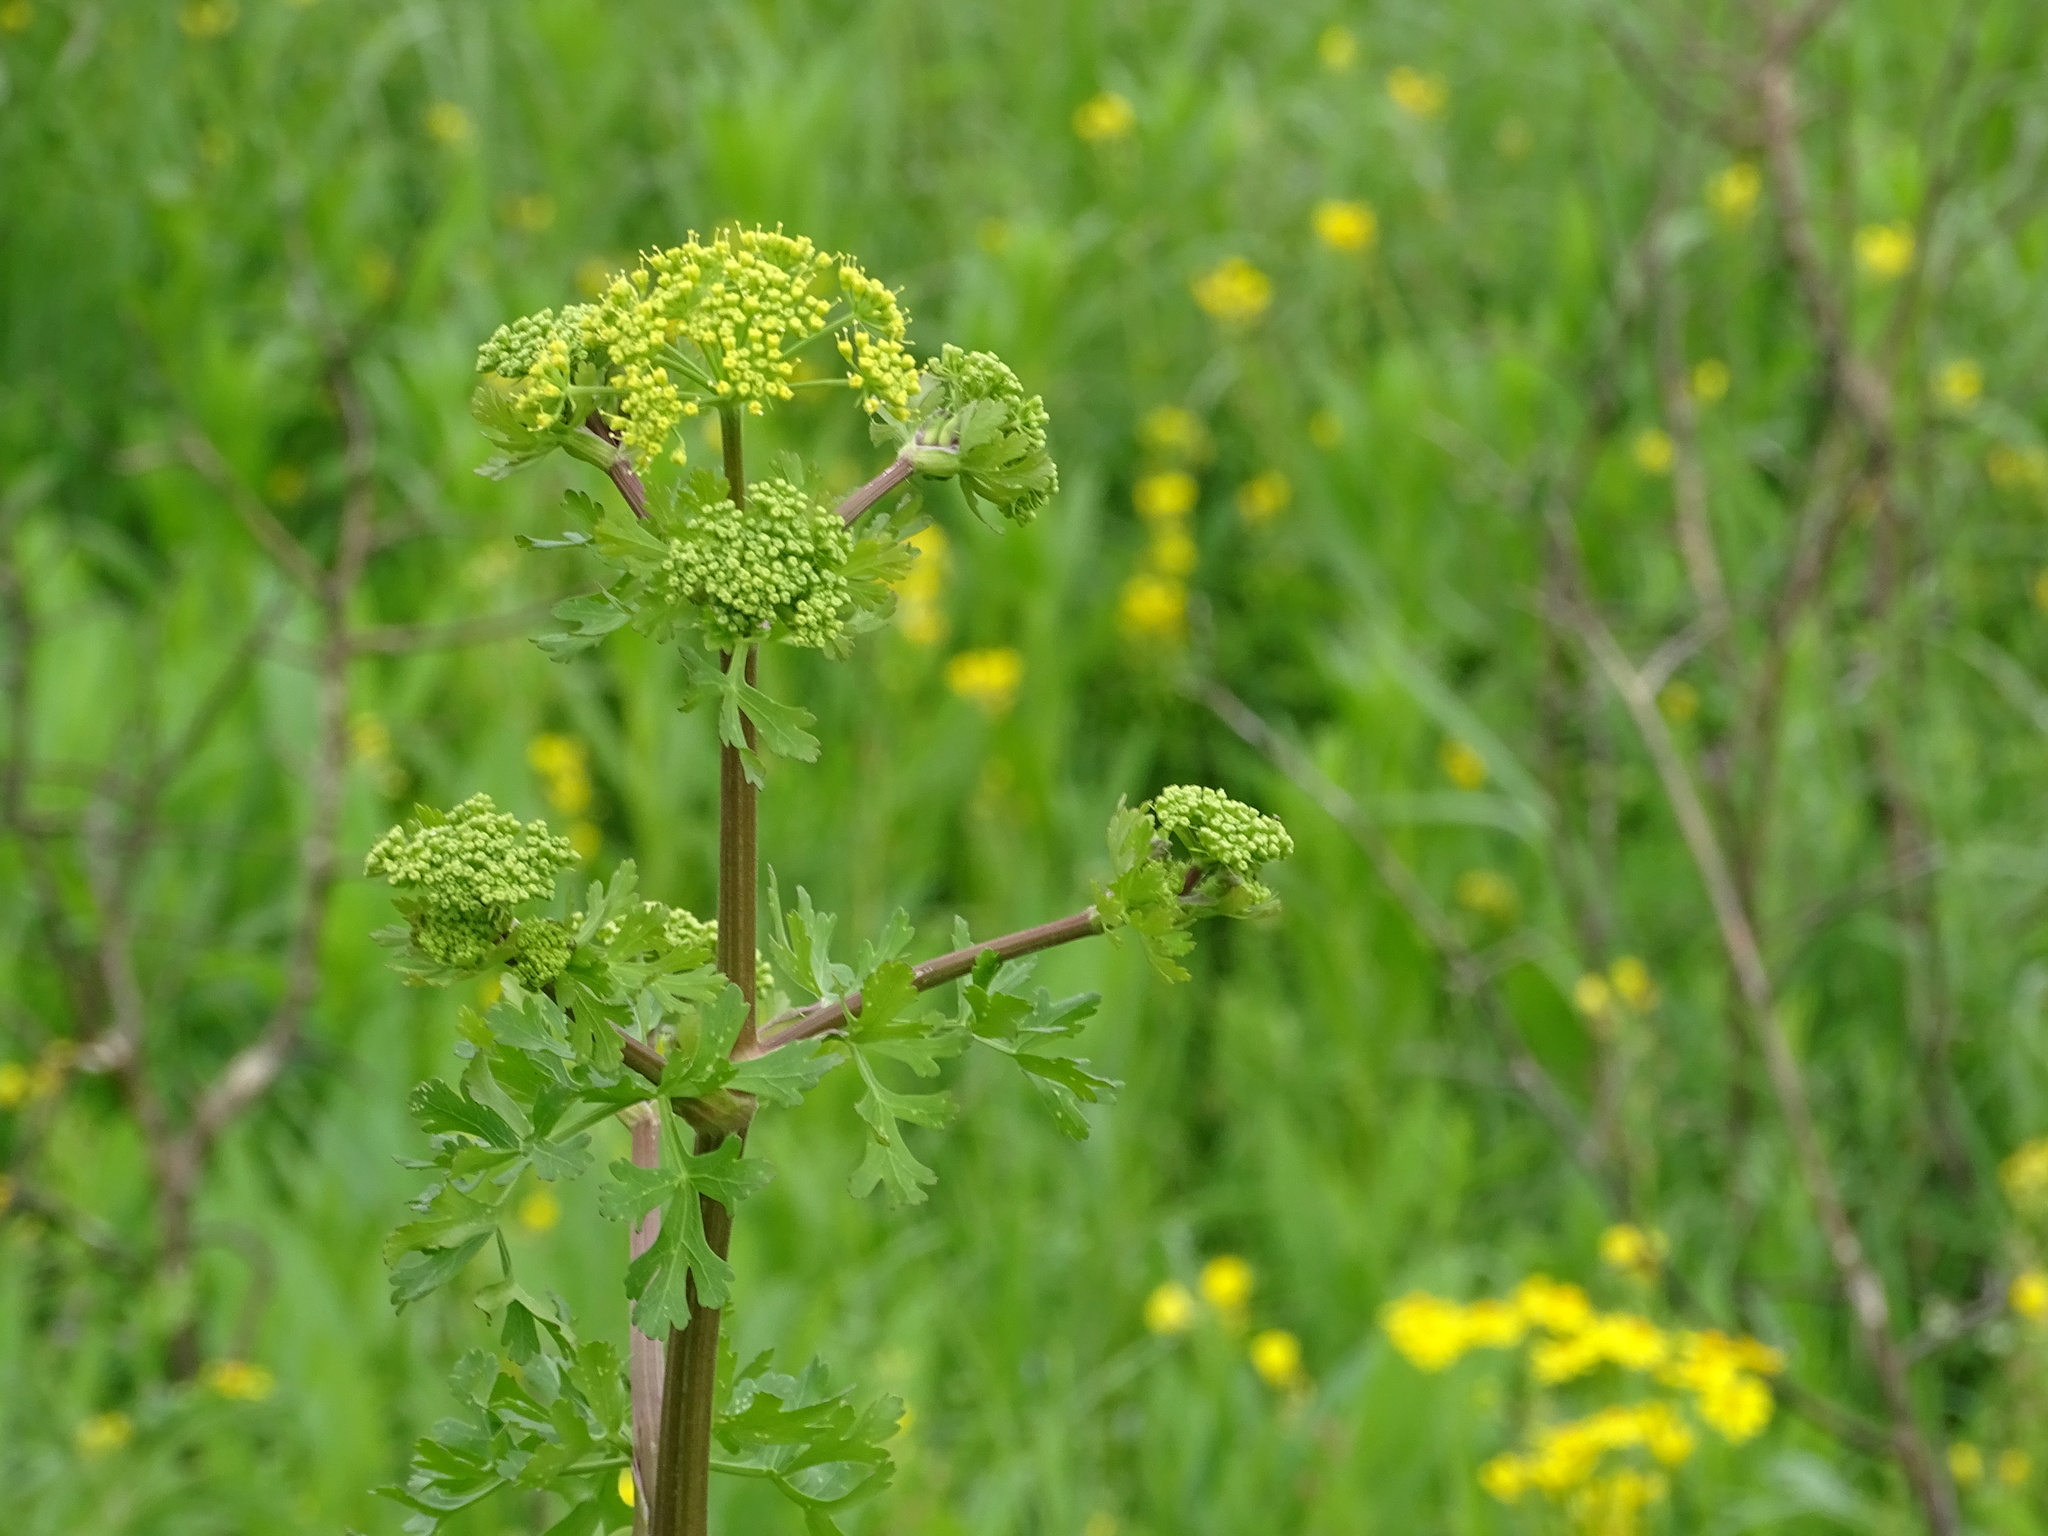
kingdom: Plantae
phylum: Tracheophyta
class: Magnoliopsida
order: Apiales
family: Apiaceae
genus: Polytaenia
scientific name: Polytaenia texana
